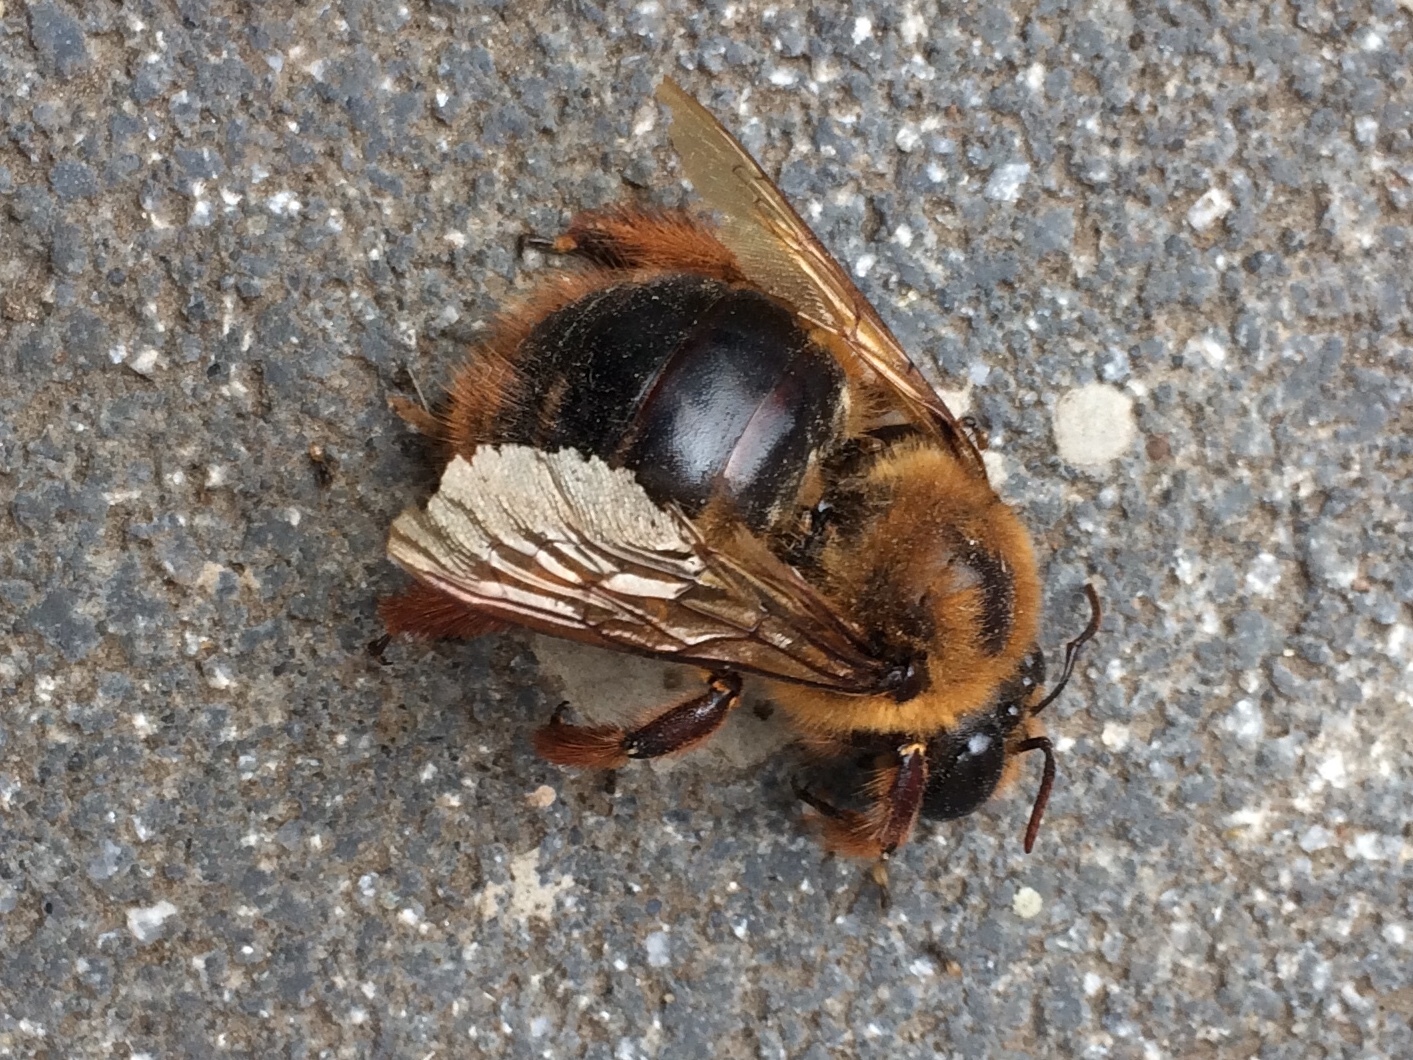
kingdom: Animalia
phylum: Arthropoda
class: Insecta
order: Hymenoptera
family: Apidae
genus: Xylocopa
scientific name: Xylocopa tranquebarica
